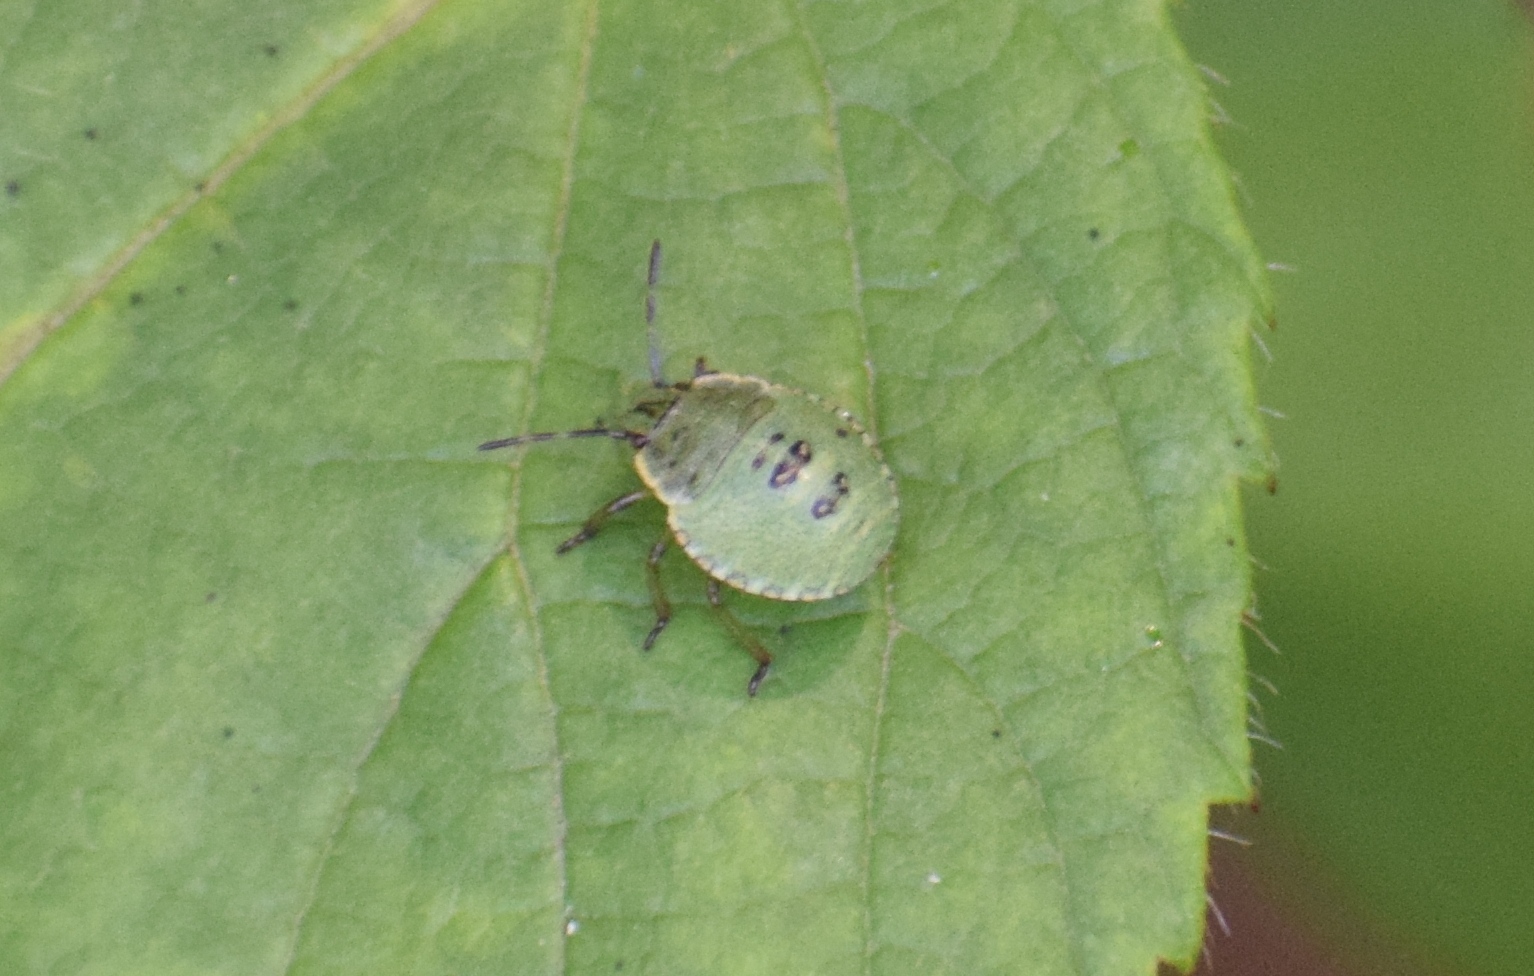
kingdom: Animalia
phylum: Arthropoda
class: Insecta
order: Hemiptera
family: Pentatomidae
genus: Palomena
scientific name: Palomena prasina
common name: Green shieldbug
